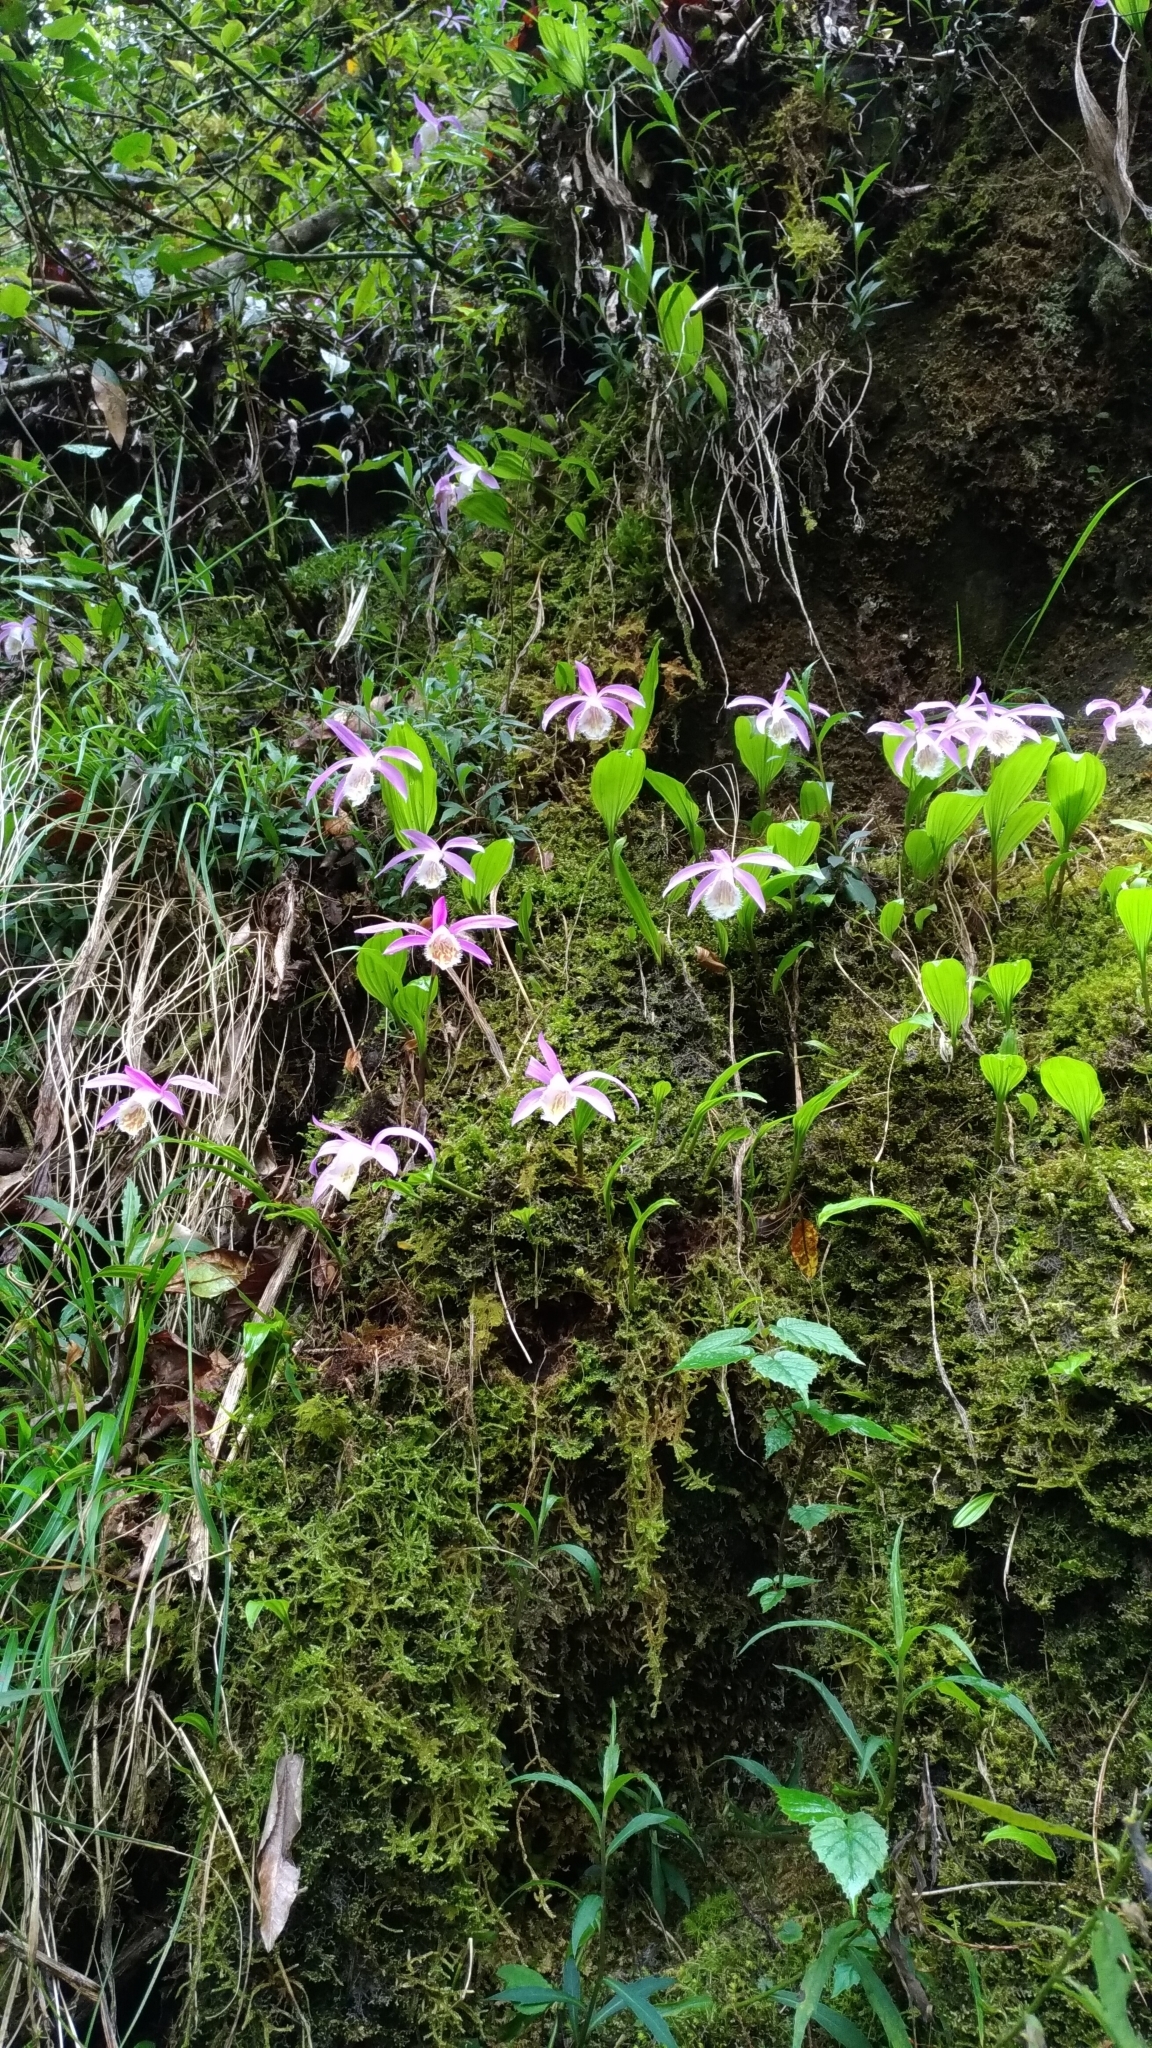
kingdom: Plantae
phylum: Tracheophyta
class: Liliopsida
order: Asparagales
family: Orchidaceae
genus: Pleione
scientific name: Pleione formosana
